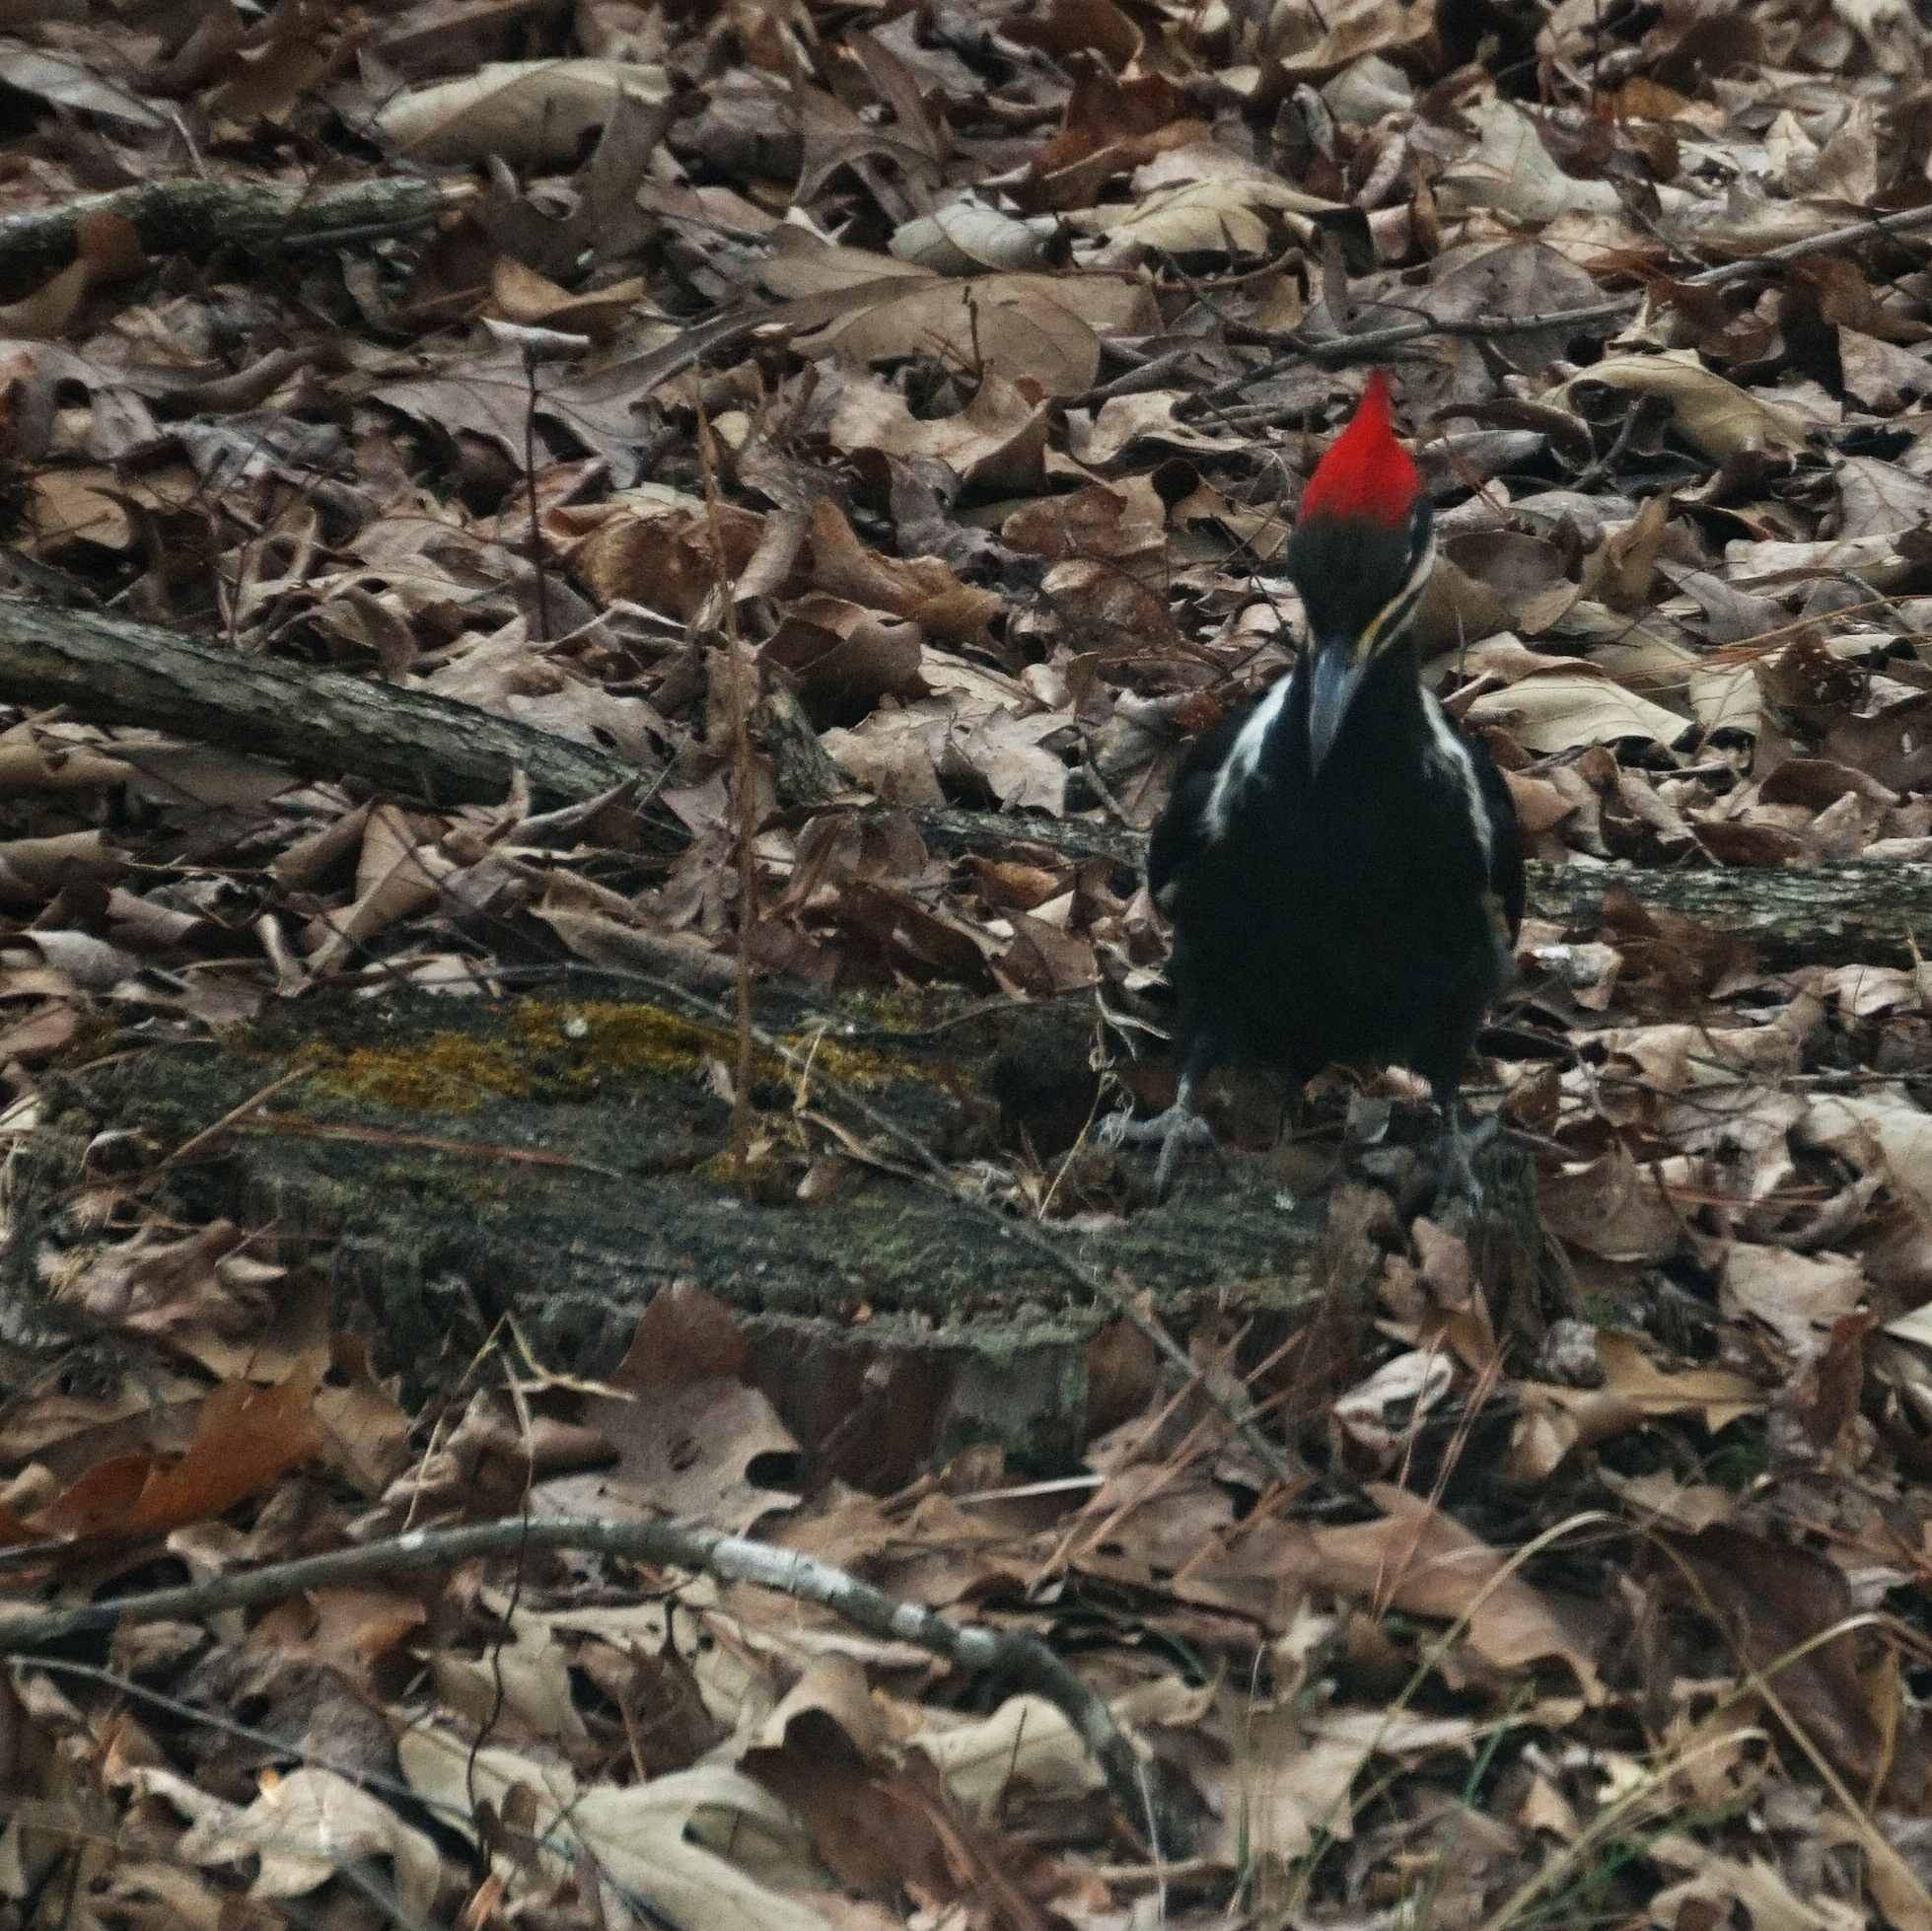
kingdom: Animalia
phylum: Chordata
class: Aves
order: Piciformes
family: Picidae
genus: Dryocopus
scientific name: Dryocopus pileatus
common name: Pileated woodpecker
